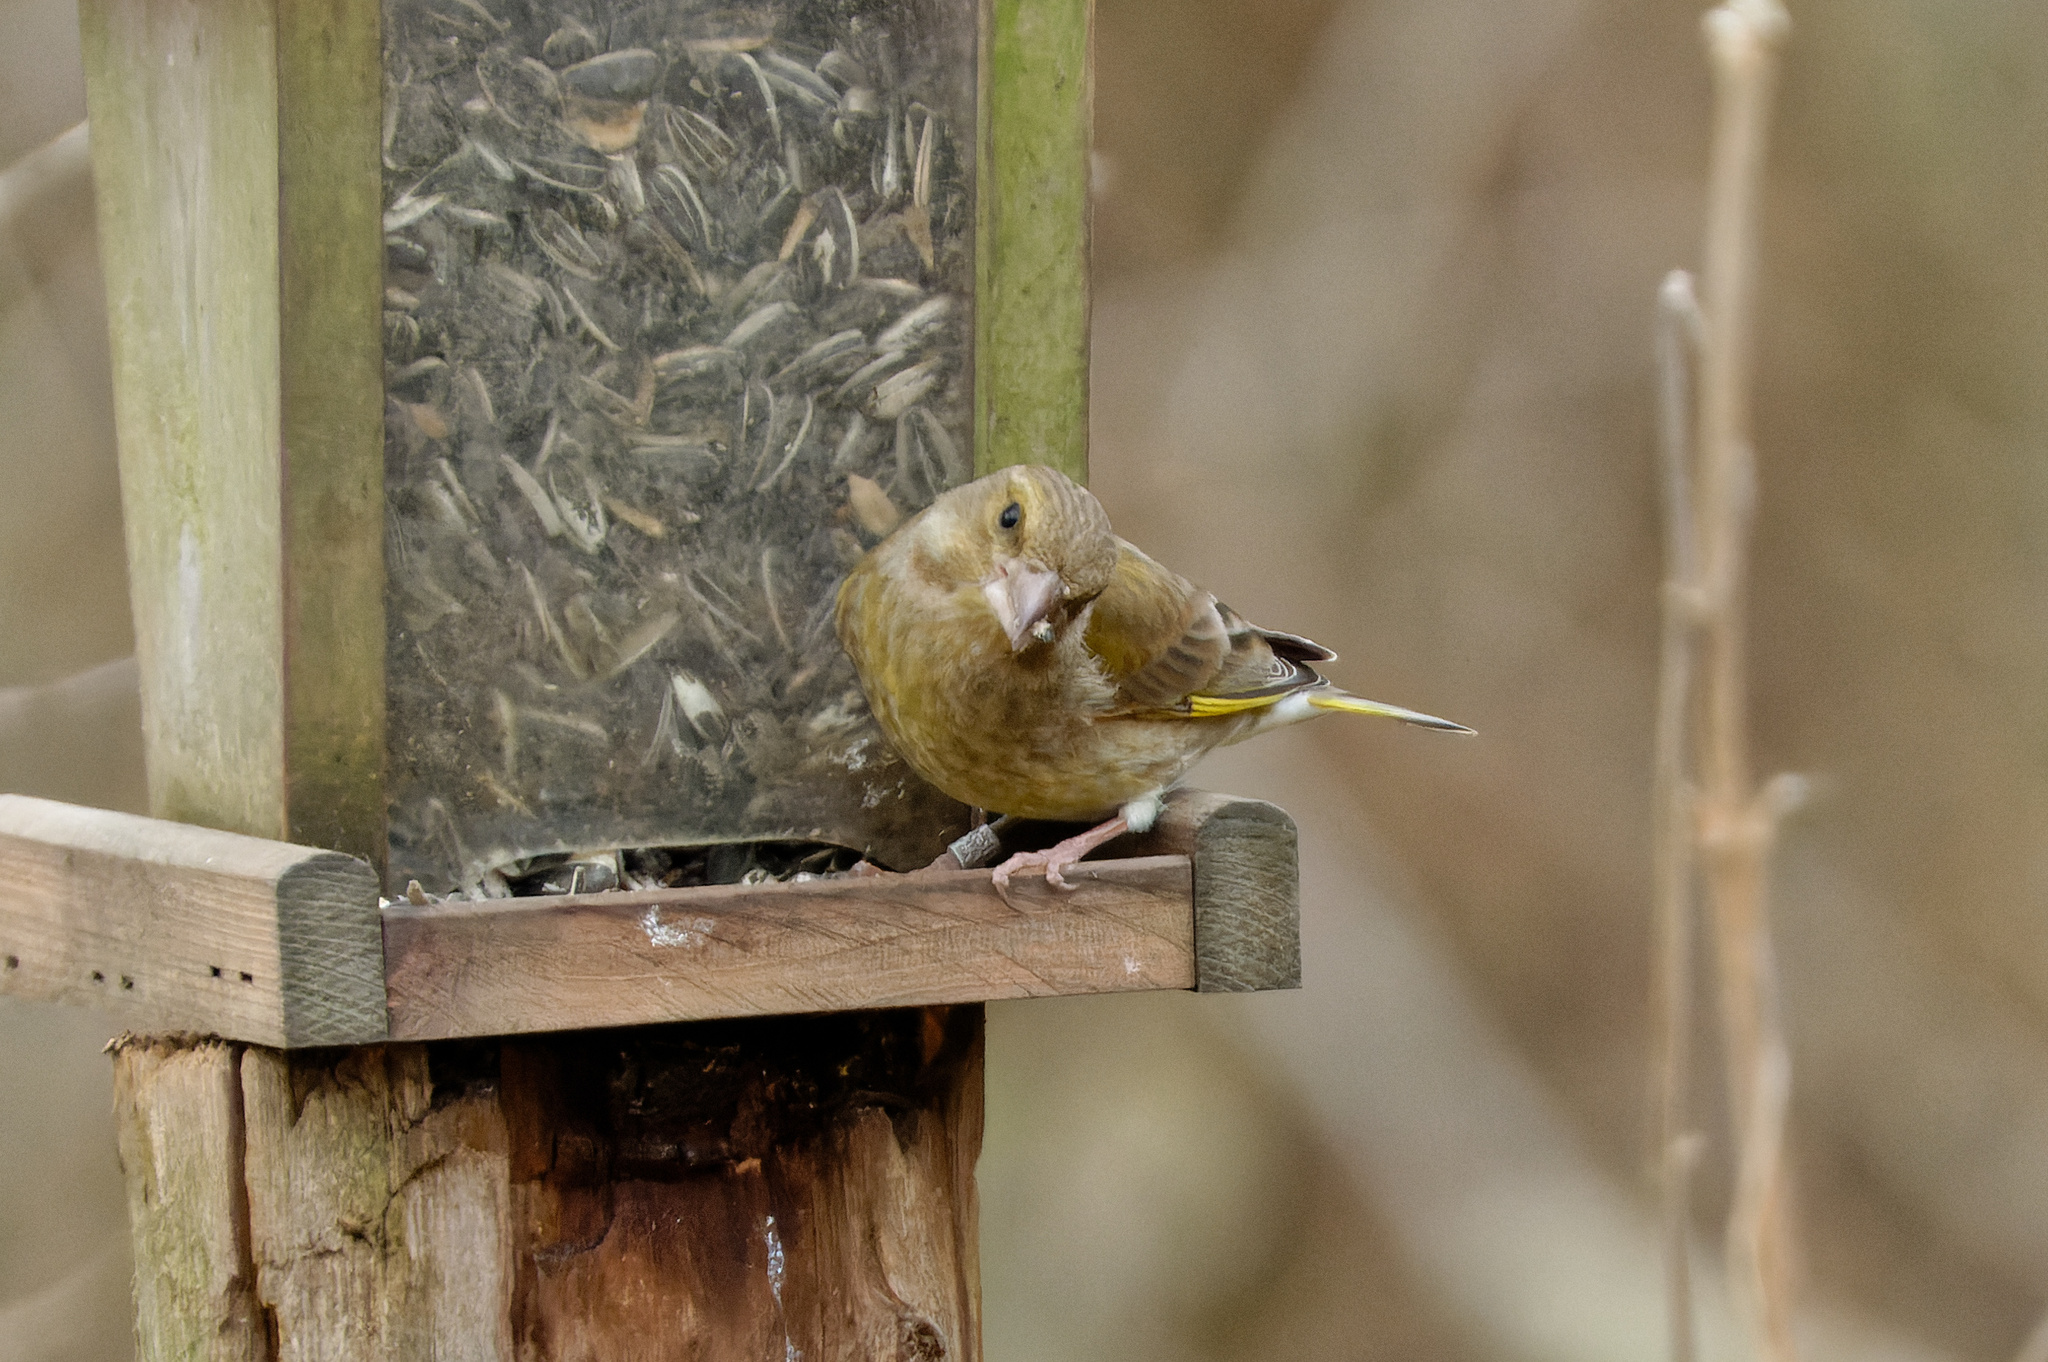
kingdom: Plantae
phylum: Tracheophyta
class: Liliopsida
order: Poales
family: Poaceae
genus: Chloris
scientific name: Chloris chloris
